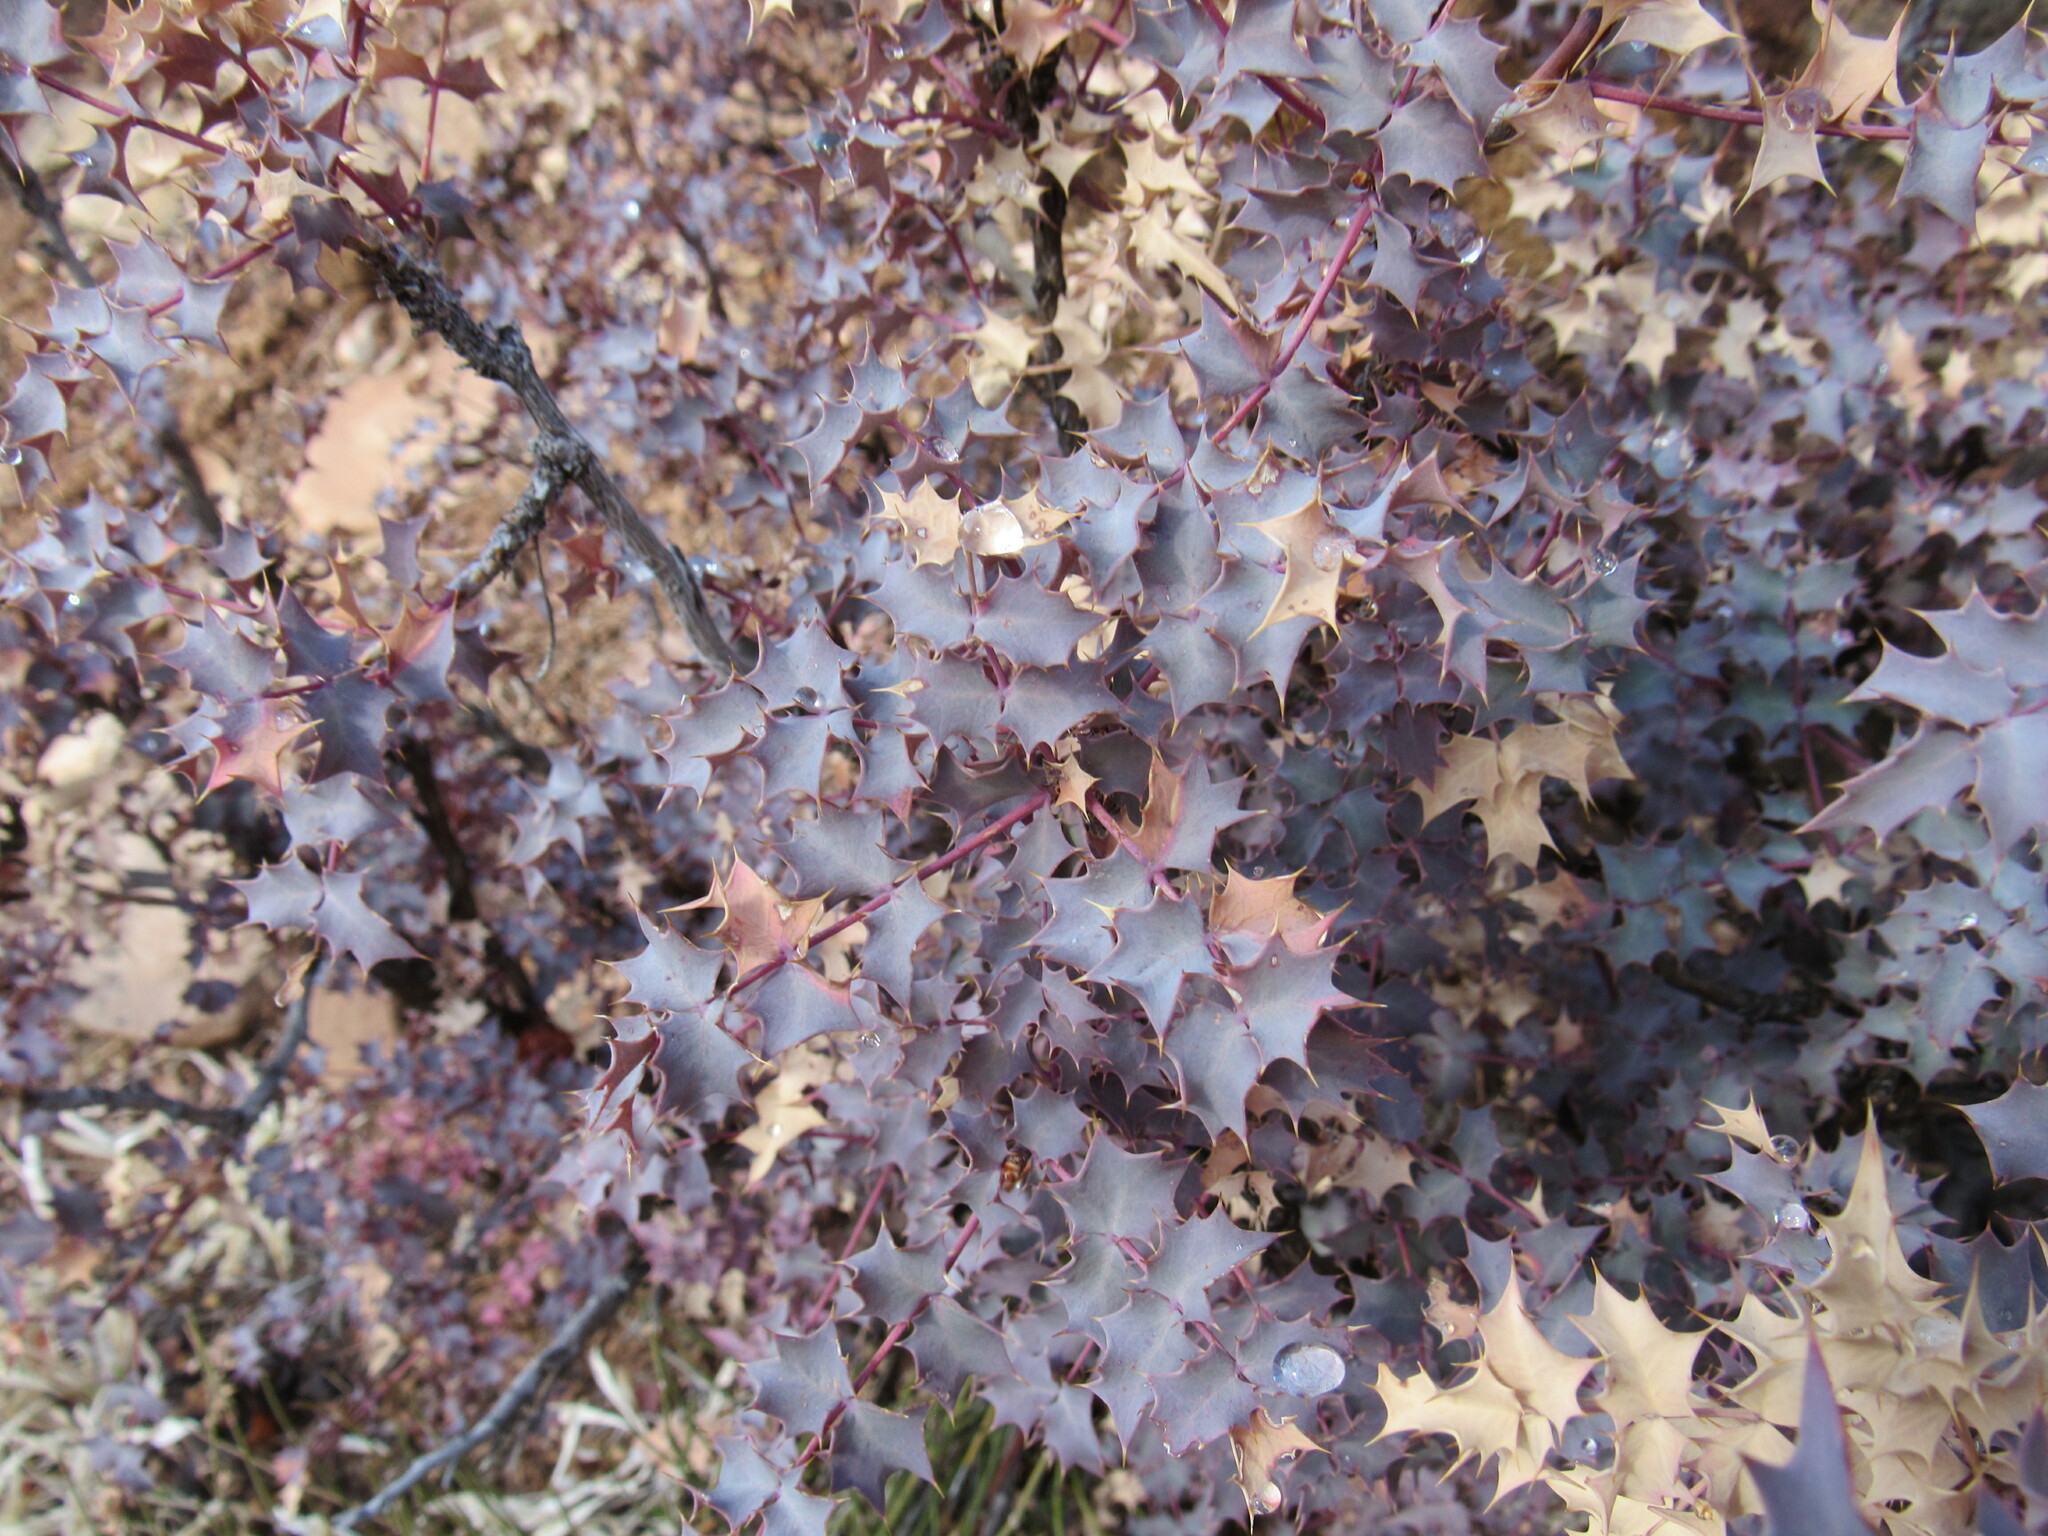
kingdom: Plantae
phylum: Tracheophyta
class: Magnoliopsida
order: Ranunculales
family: Berberidaceae
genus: Alloberberis
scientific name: Alloberberis fremontii
